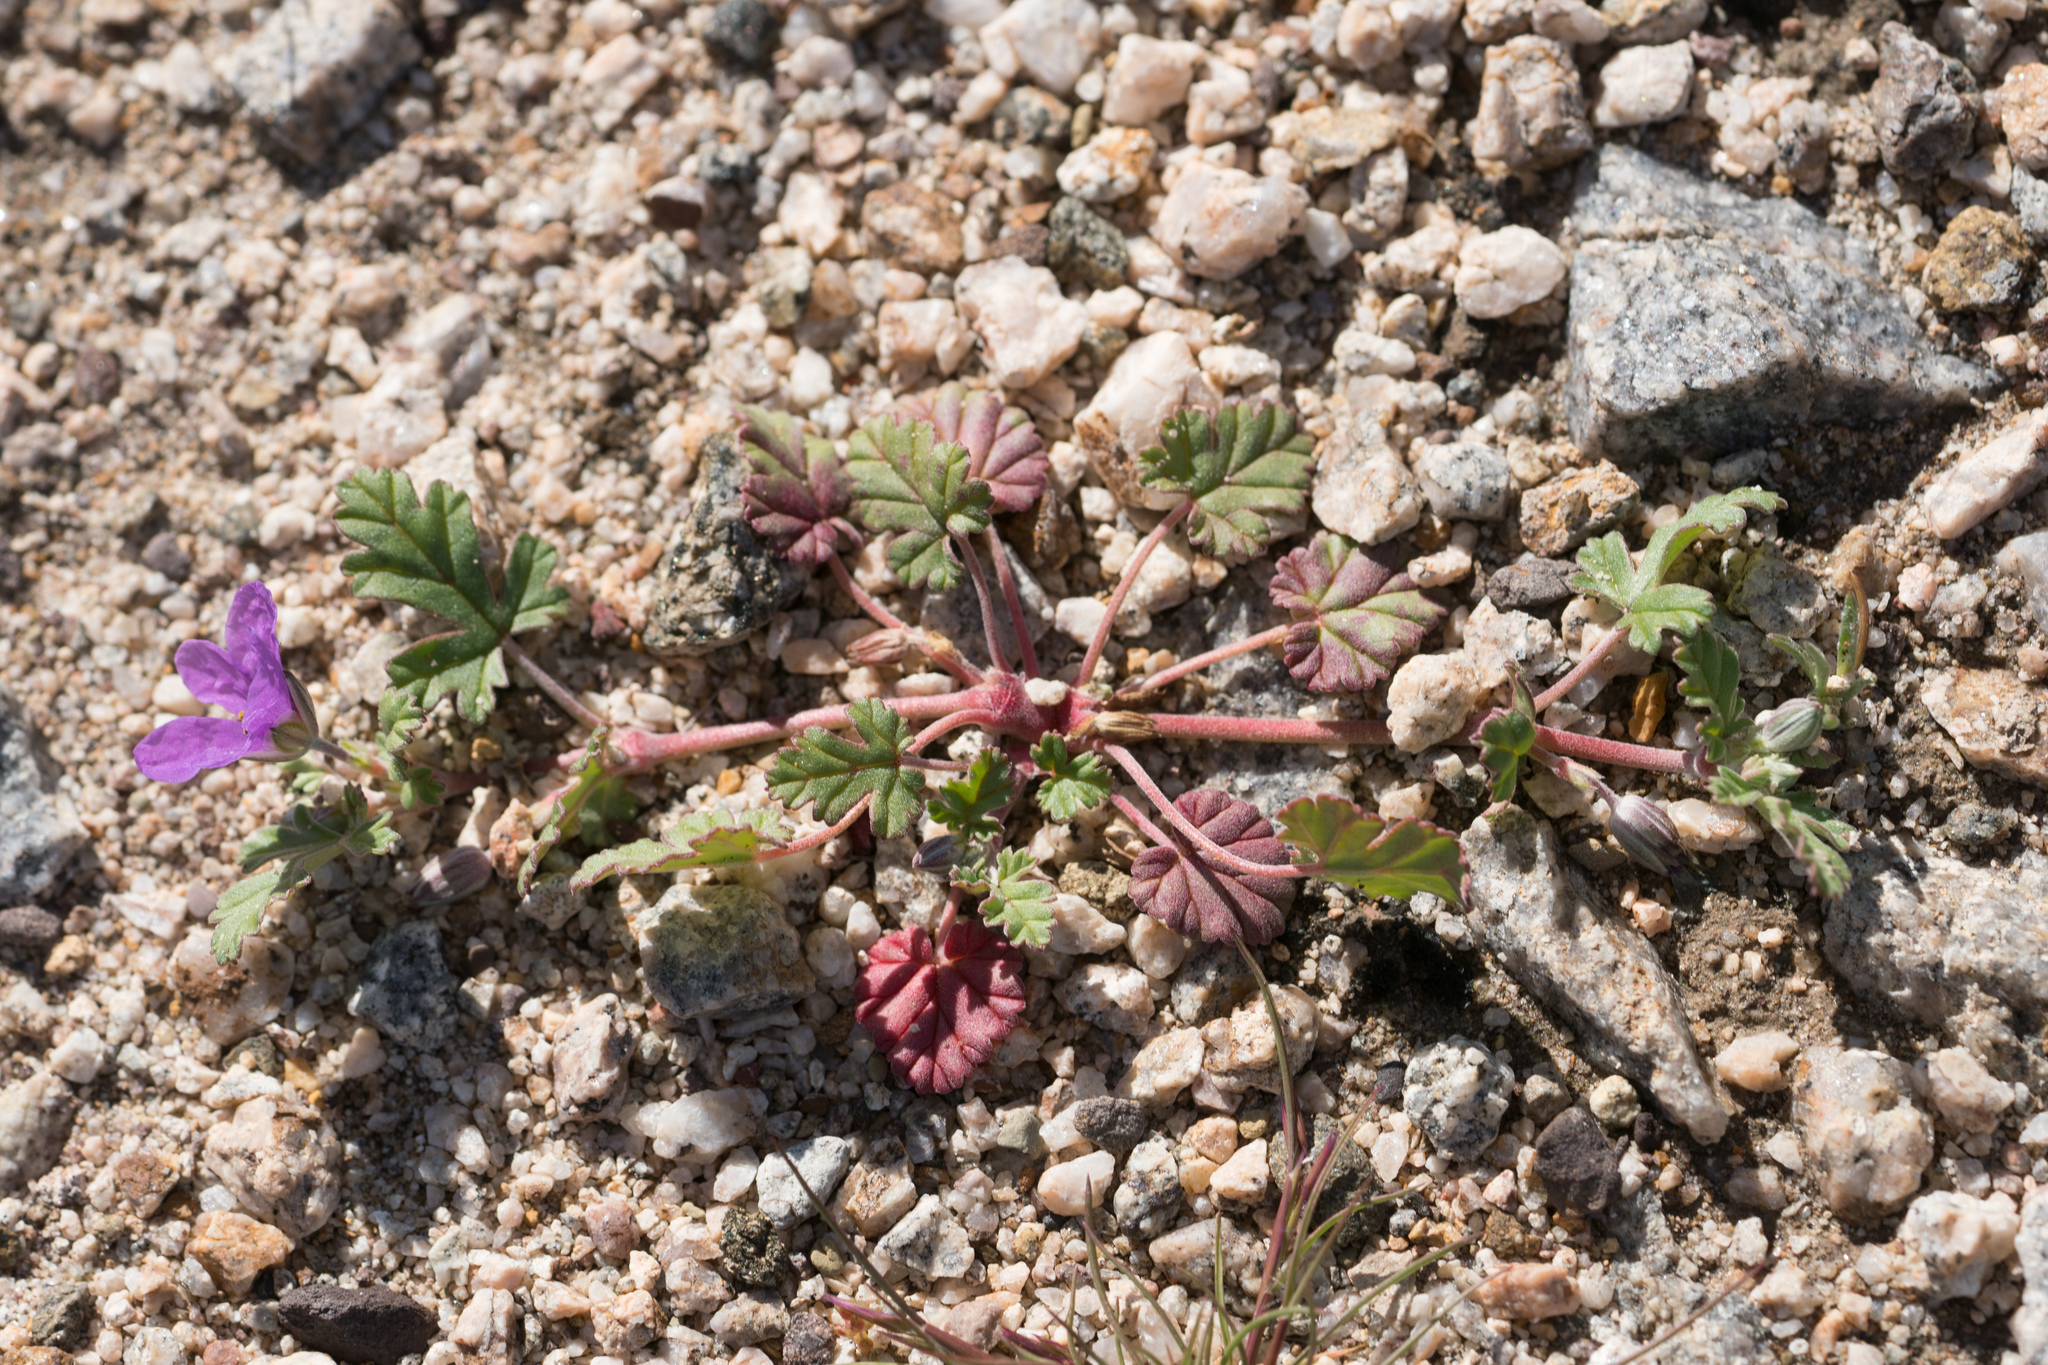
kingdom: Plantae
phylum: Tracheophyta
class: Magnoliopsida
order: Geraniales
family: Geraniaceae
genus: Erodium
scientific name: Erodium texanum
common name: Texas stork's-bill
